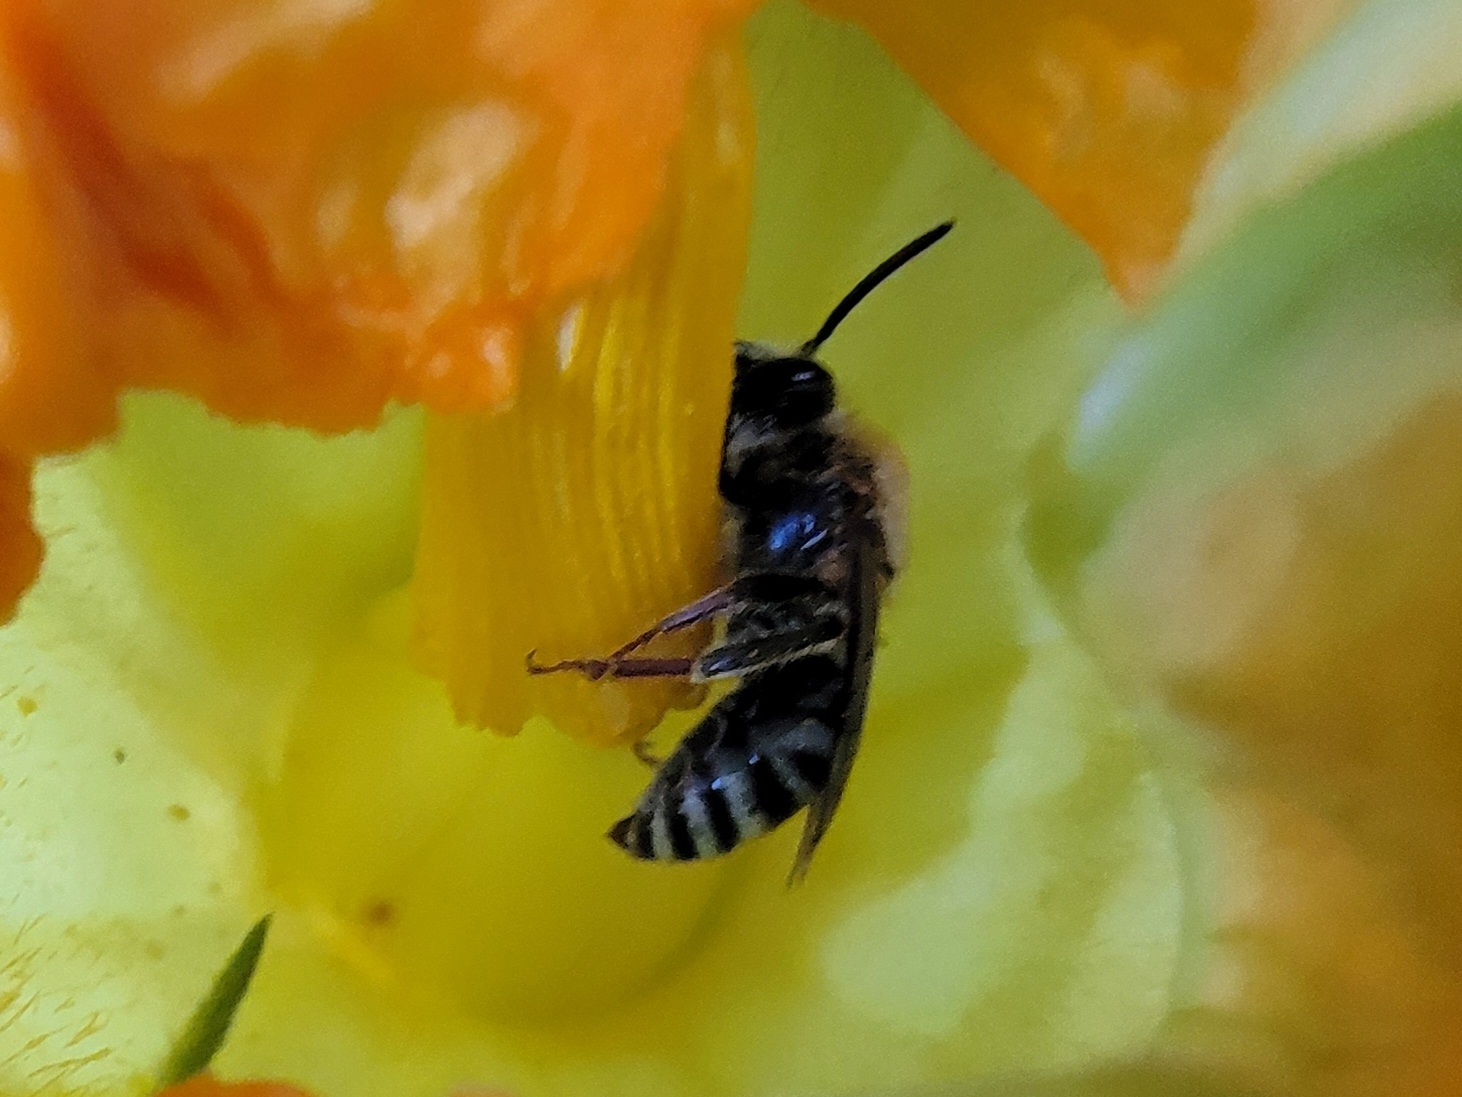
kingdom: Animalia
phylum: Arthropoda
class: Insecta
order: Hymenoptera
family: Apidae
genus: Peponapis
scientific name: Peponapis pruinosa
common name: Pruinose squash bee
